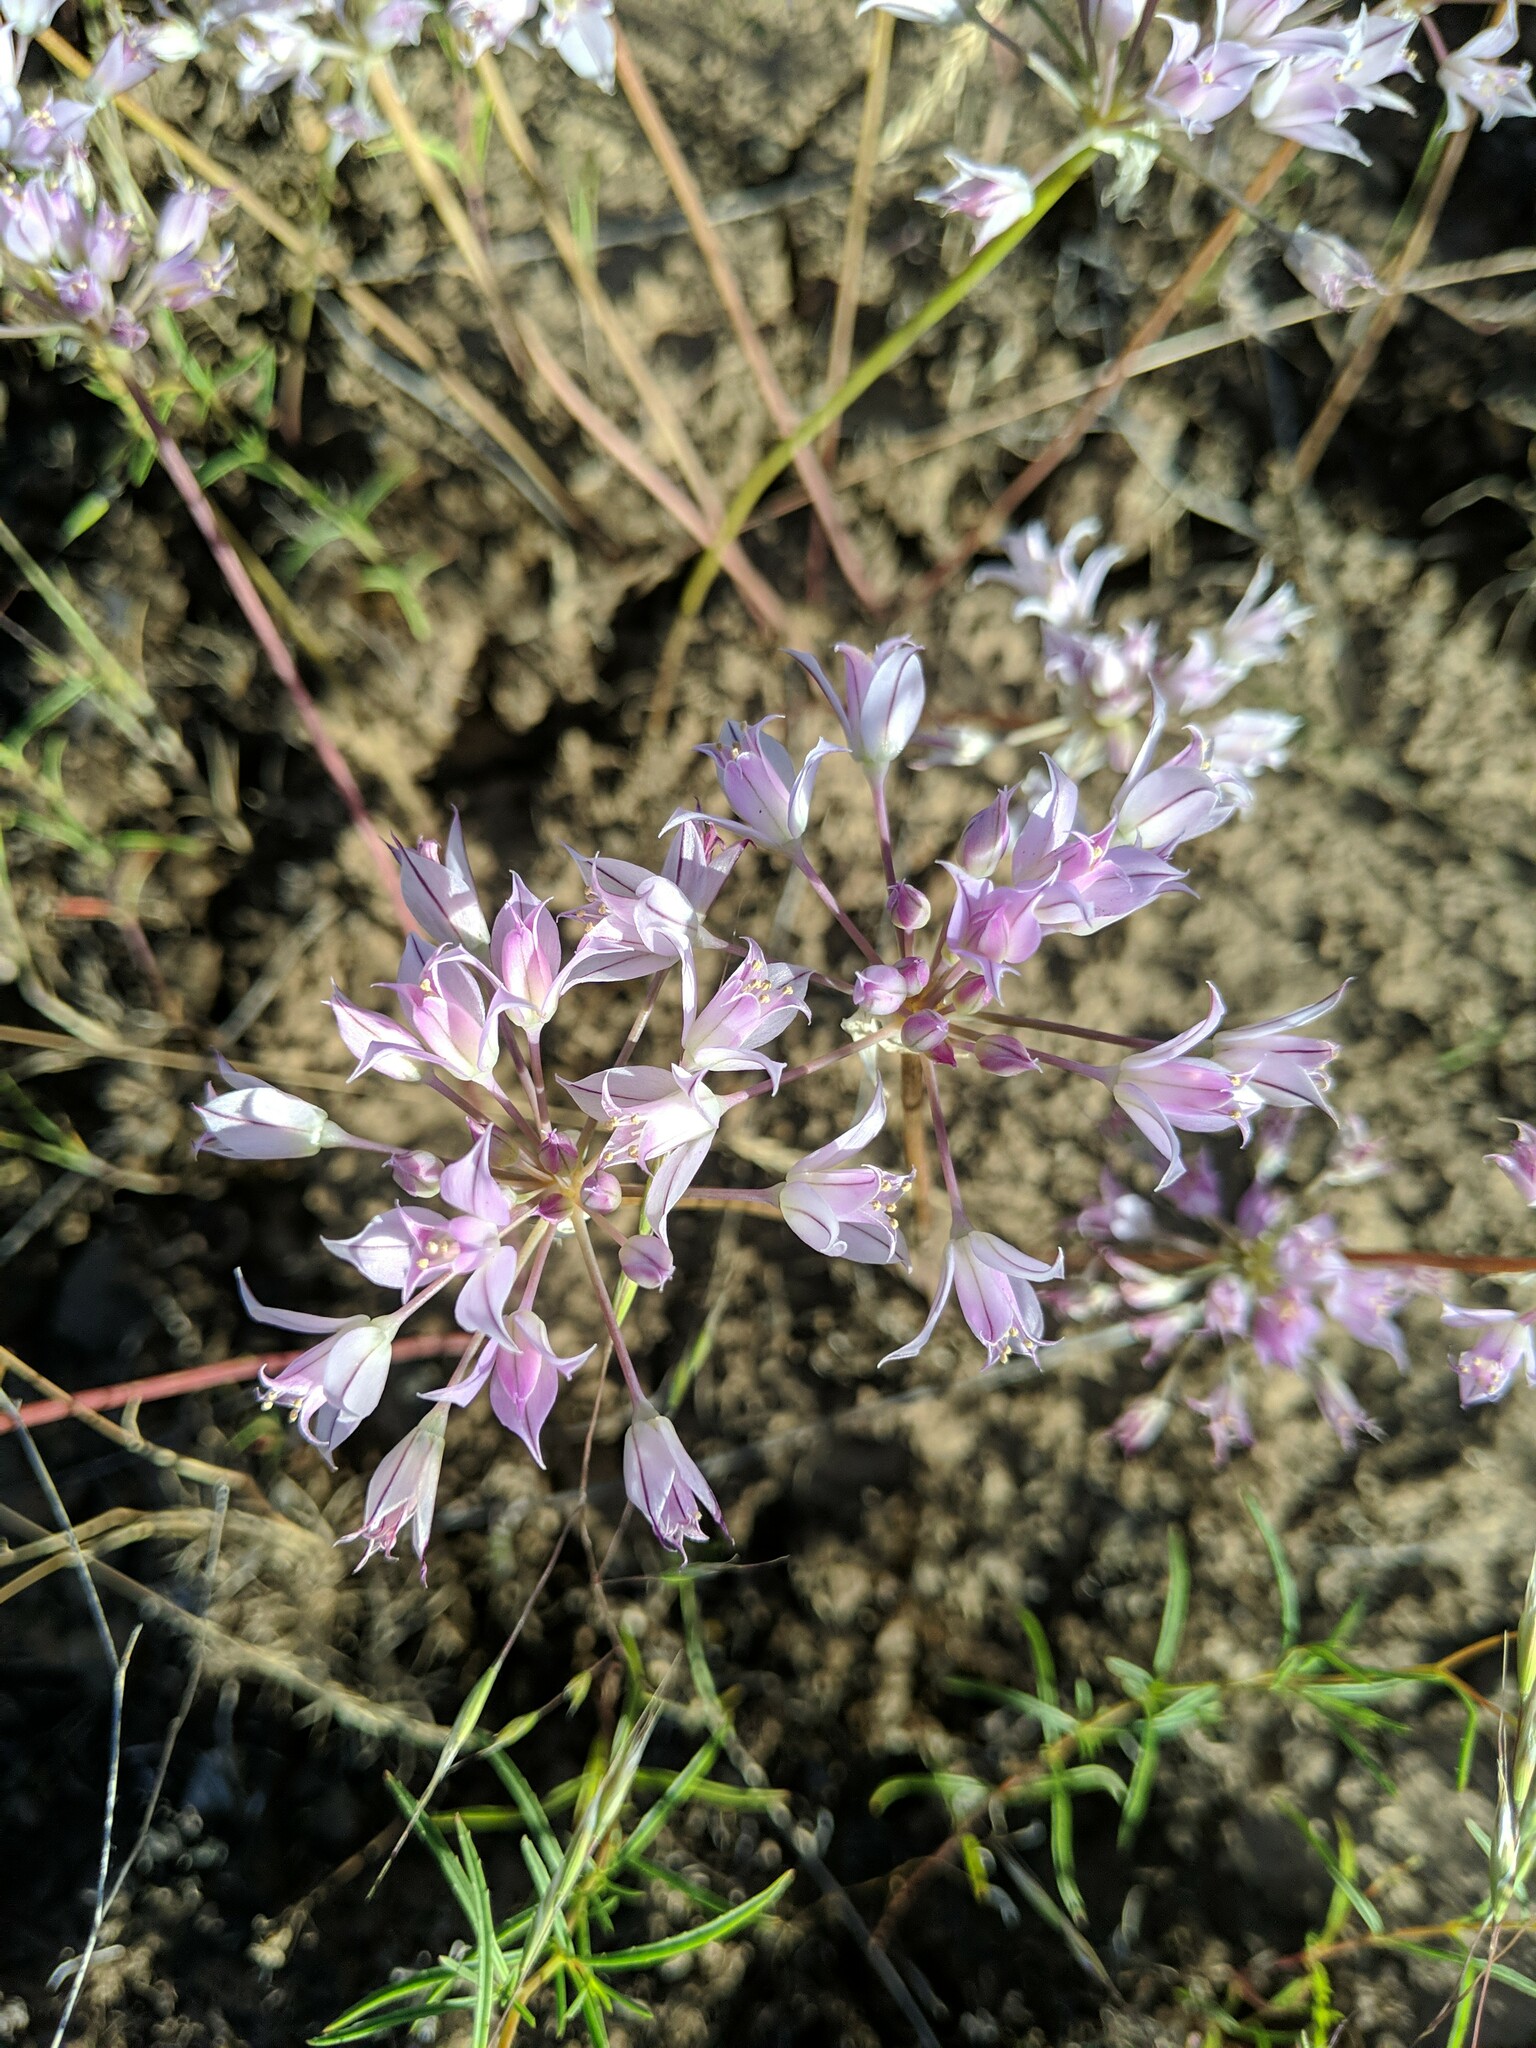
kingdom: Plantae
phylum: Tracheophyta
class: Liliopsida
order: Asparagales
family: Amaryllidaceae
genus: Allium
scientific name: Allium acuminatum
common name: Hooker's onion
